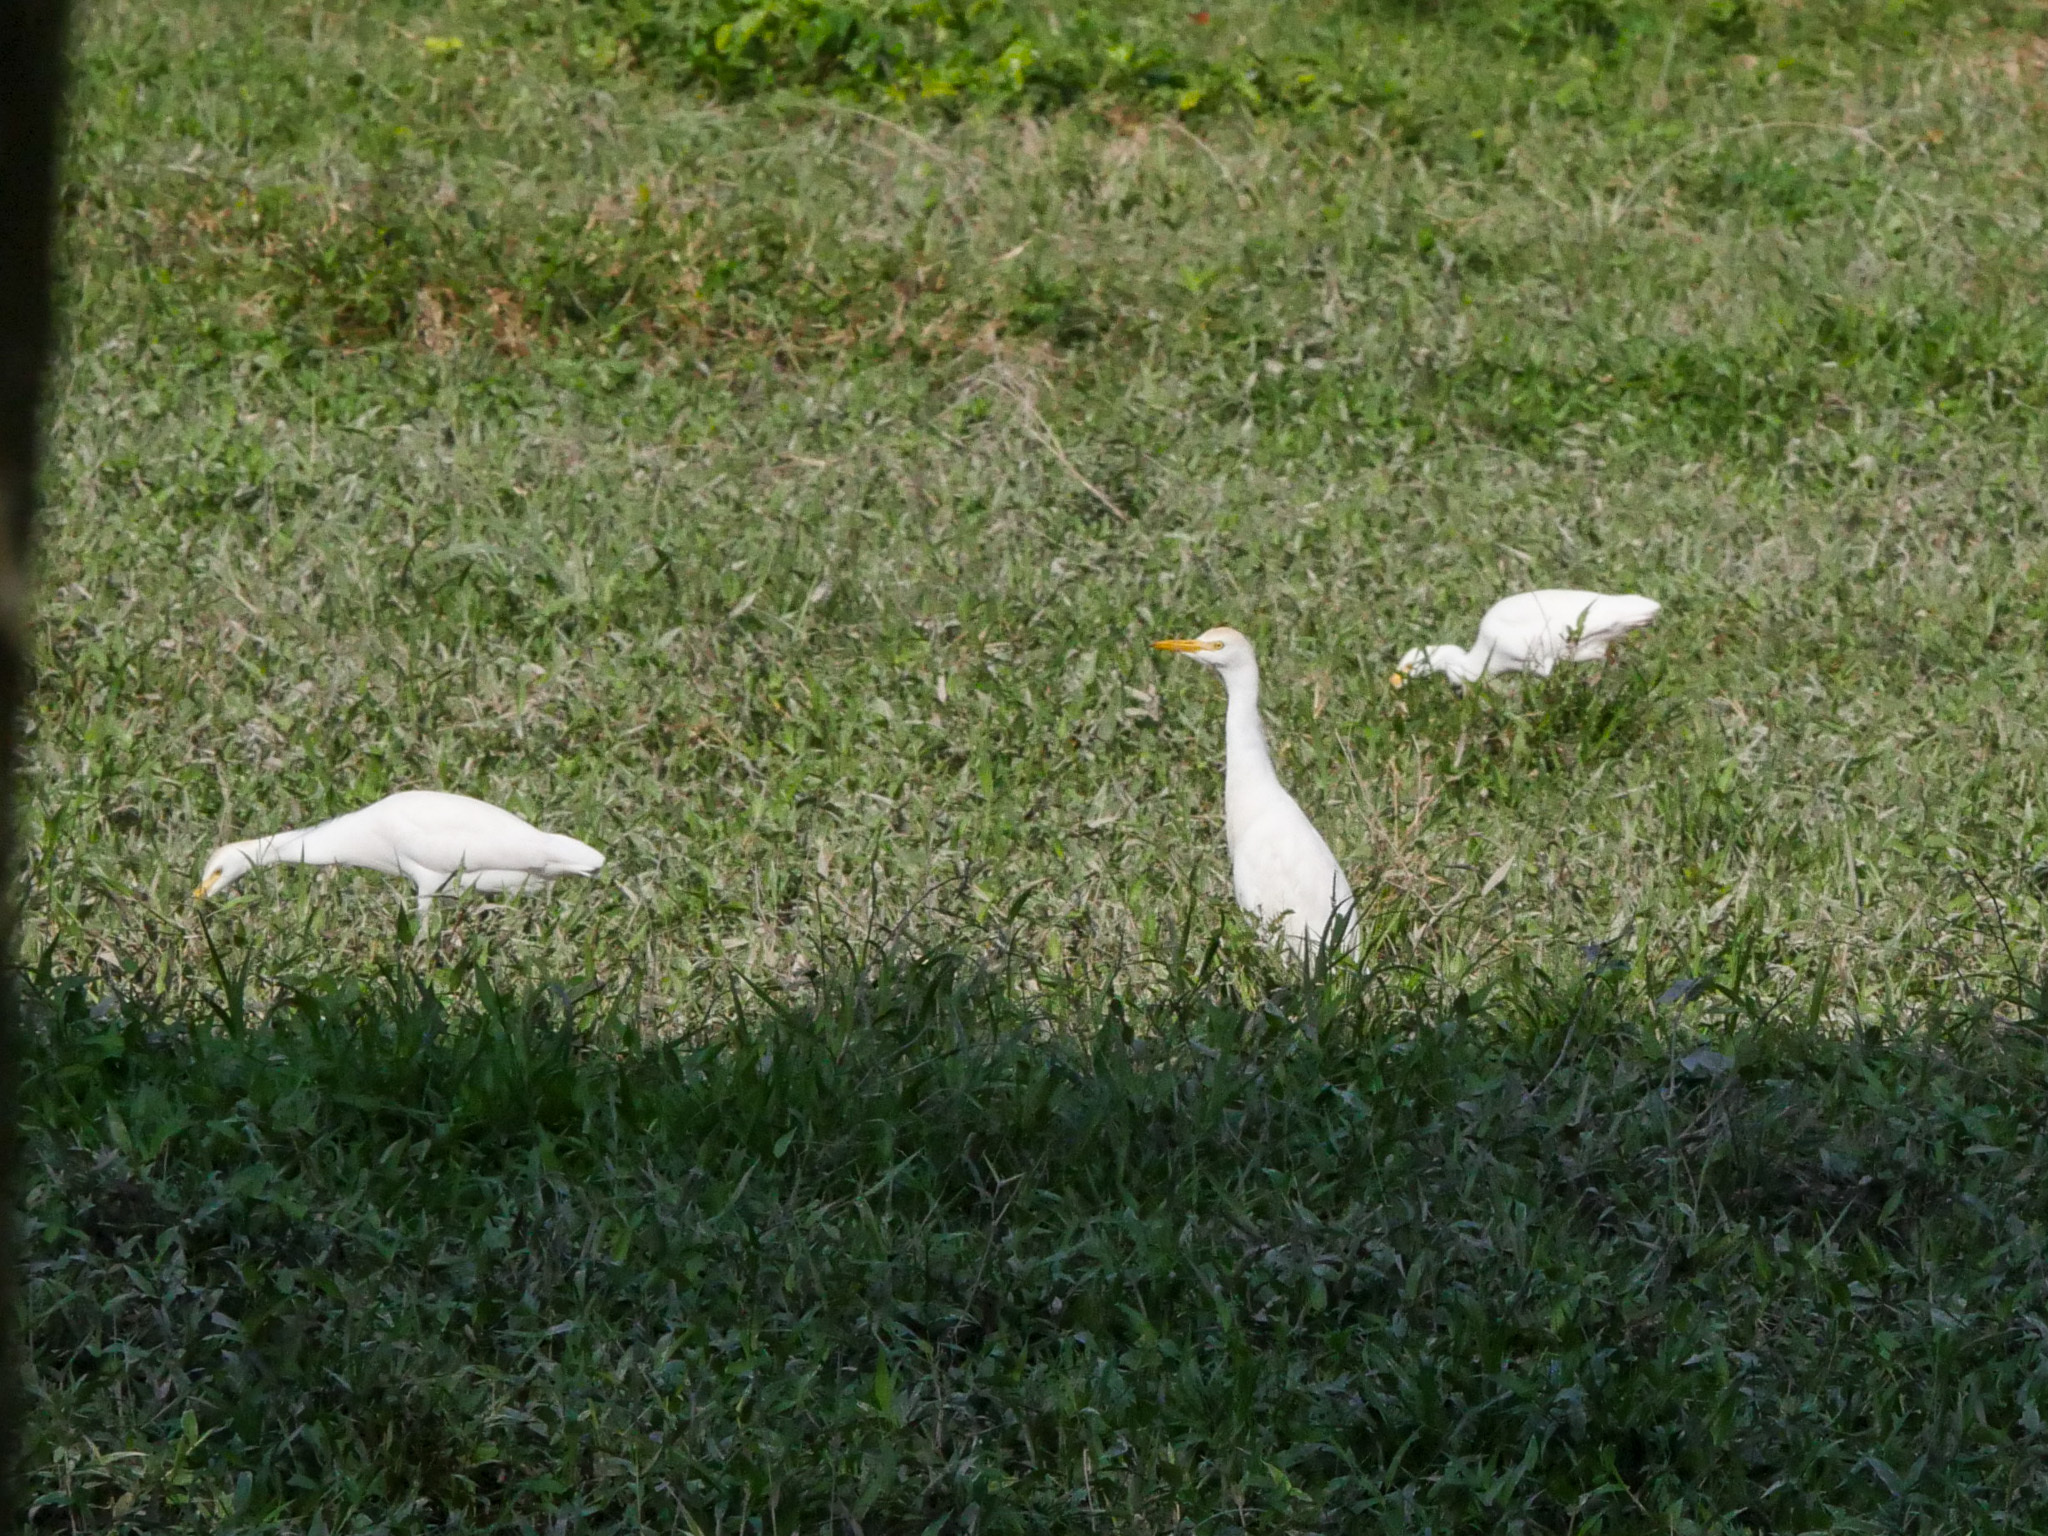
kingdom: Animalia
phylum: Chordata
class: Aves
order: Pelecaniformes
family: Ardeidae
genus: Bubulcus
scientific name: Bubulcus ibis
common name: Cattle egret
